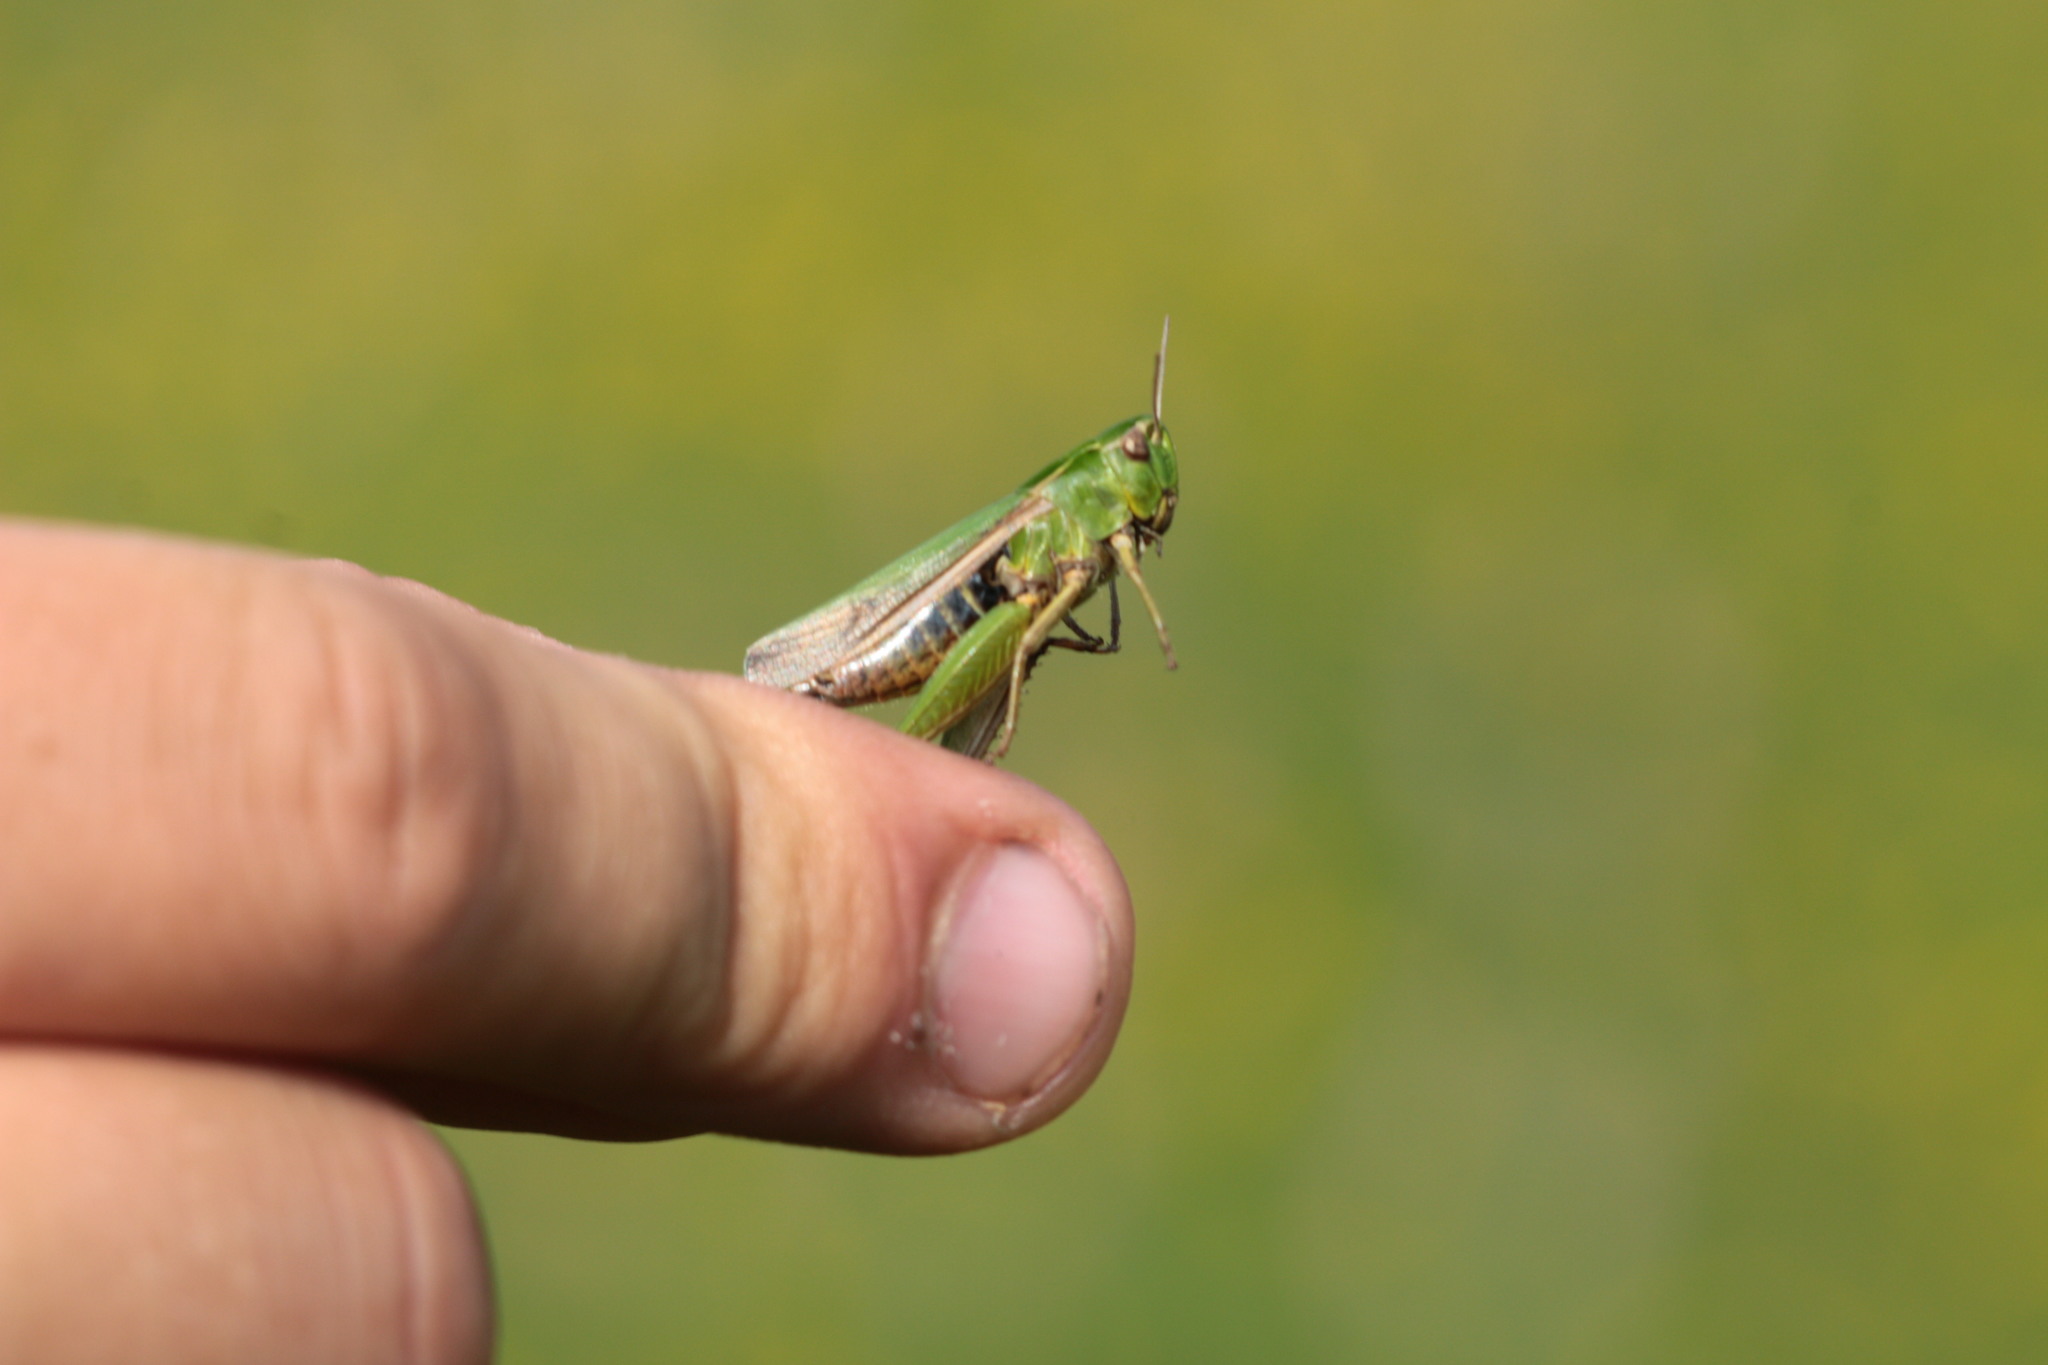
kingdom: Animalia
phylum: Arthropoda
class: Insecta
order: Orthoptera
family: Acrididae
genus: Omocestus
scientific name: Omocestus viridulus
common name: Common green grasshopper
